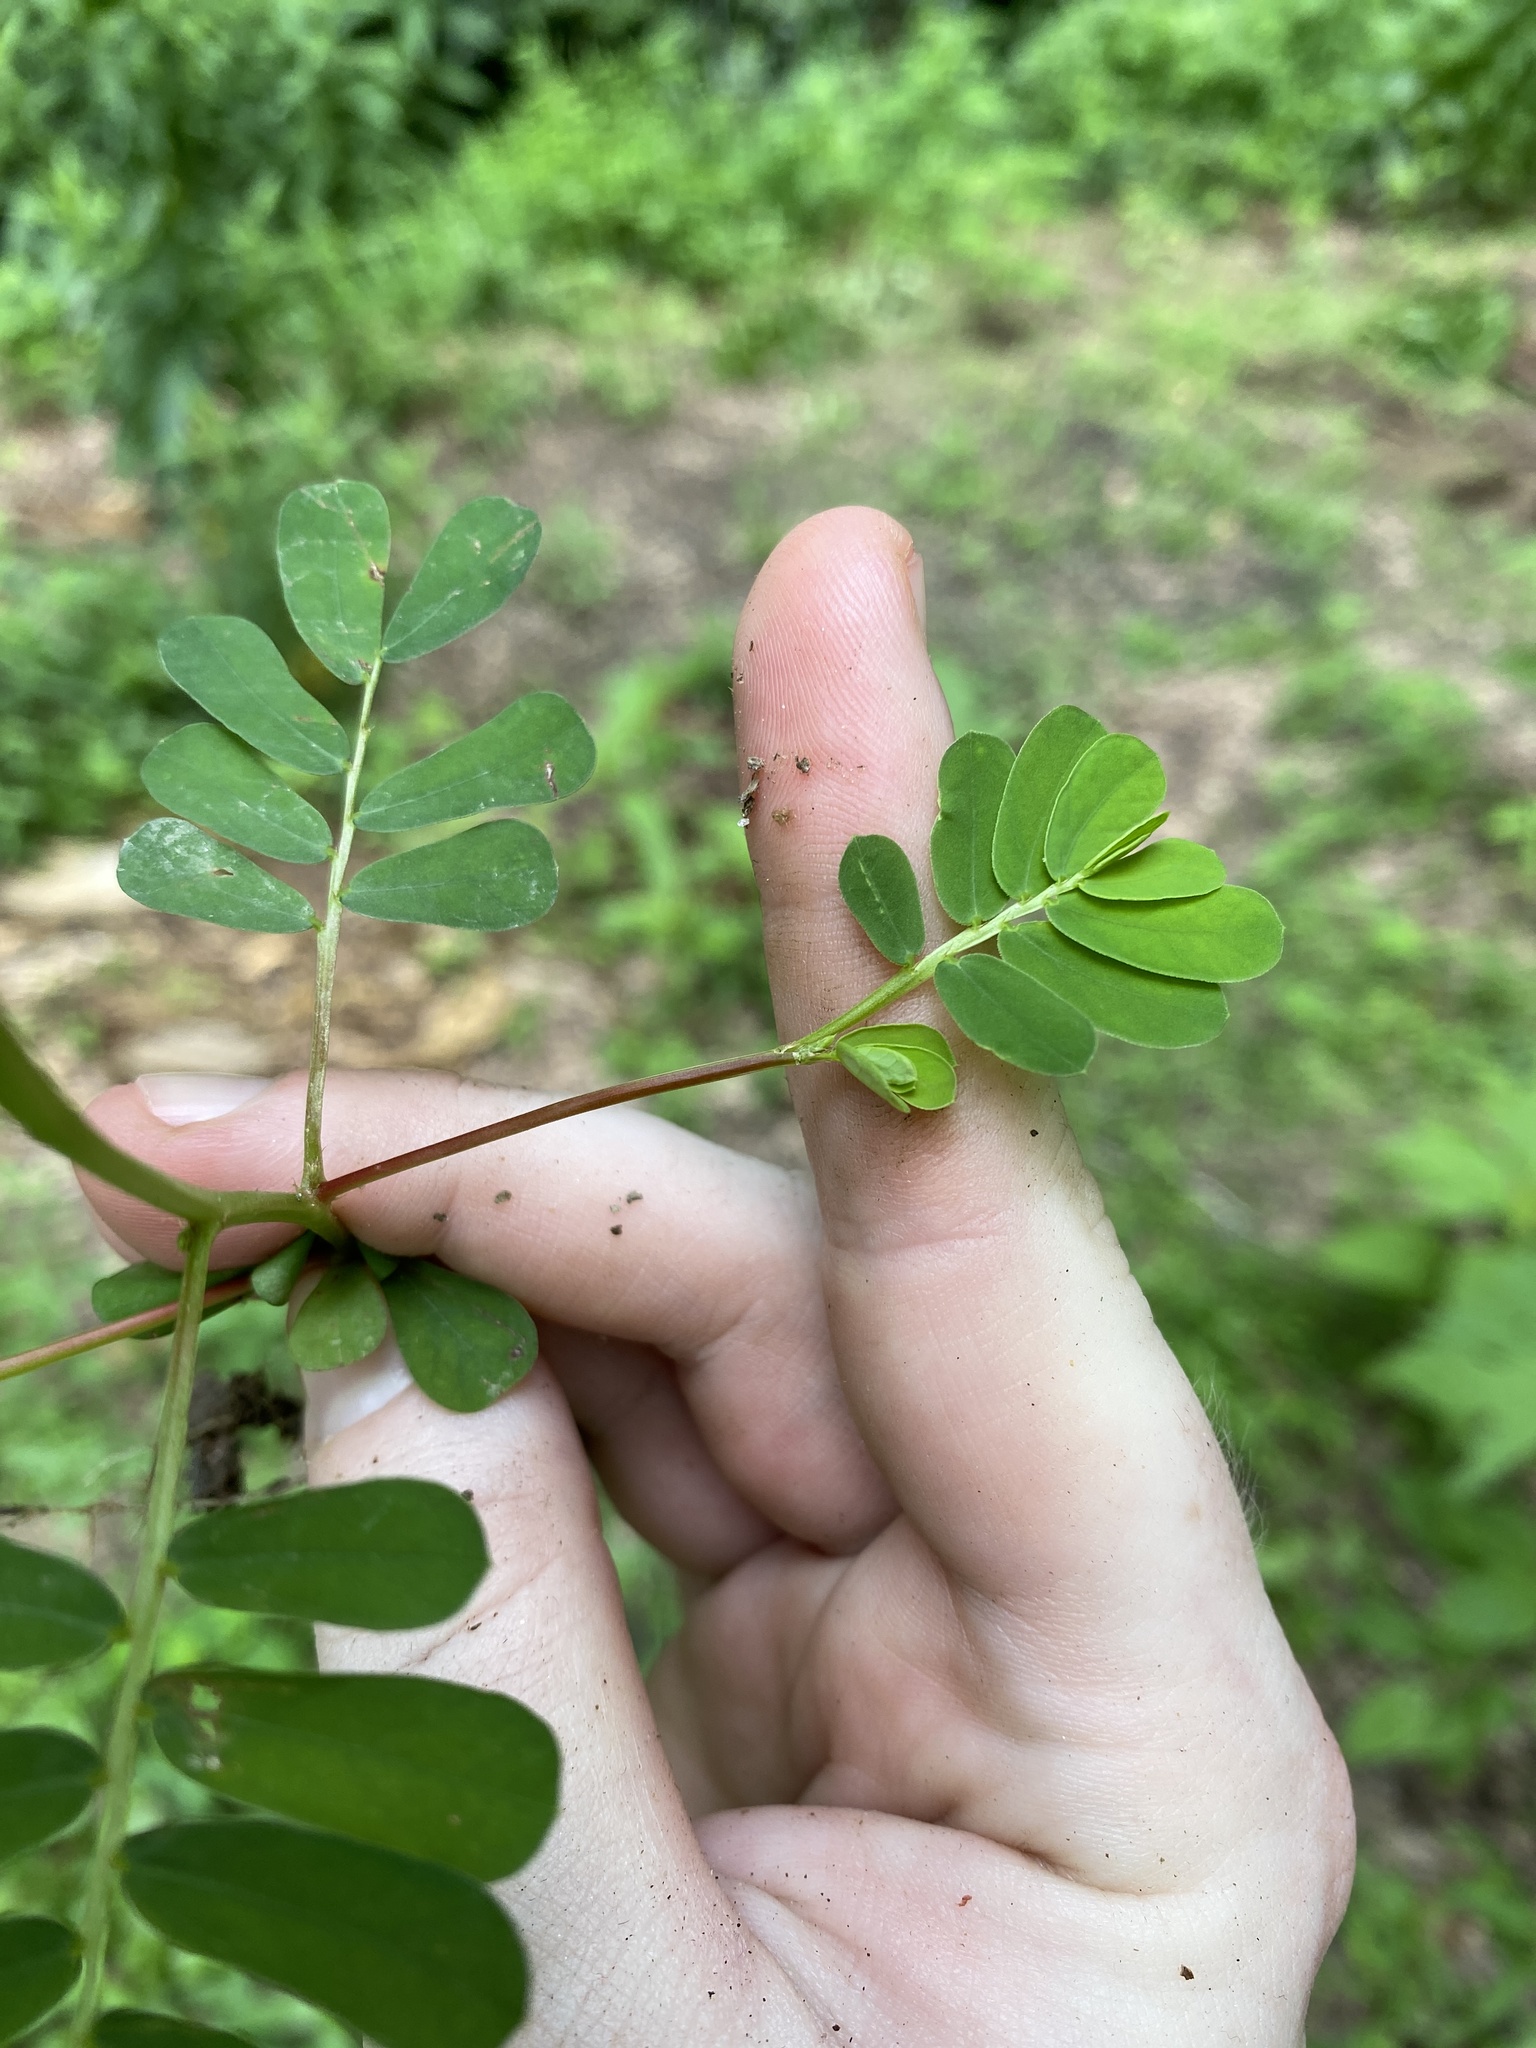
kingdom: Plantae
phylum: Tracheophyta
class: Magnoliopsida
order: Malpighiales
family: Phyllanthaceae
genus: Phyllanthus
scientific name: Phyllanthus urinaria
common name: Chamber bitter
